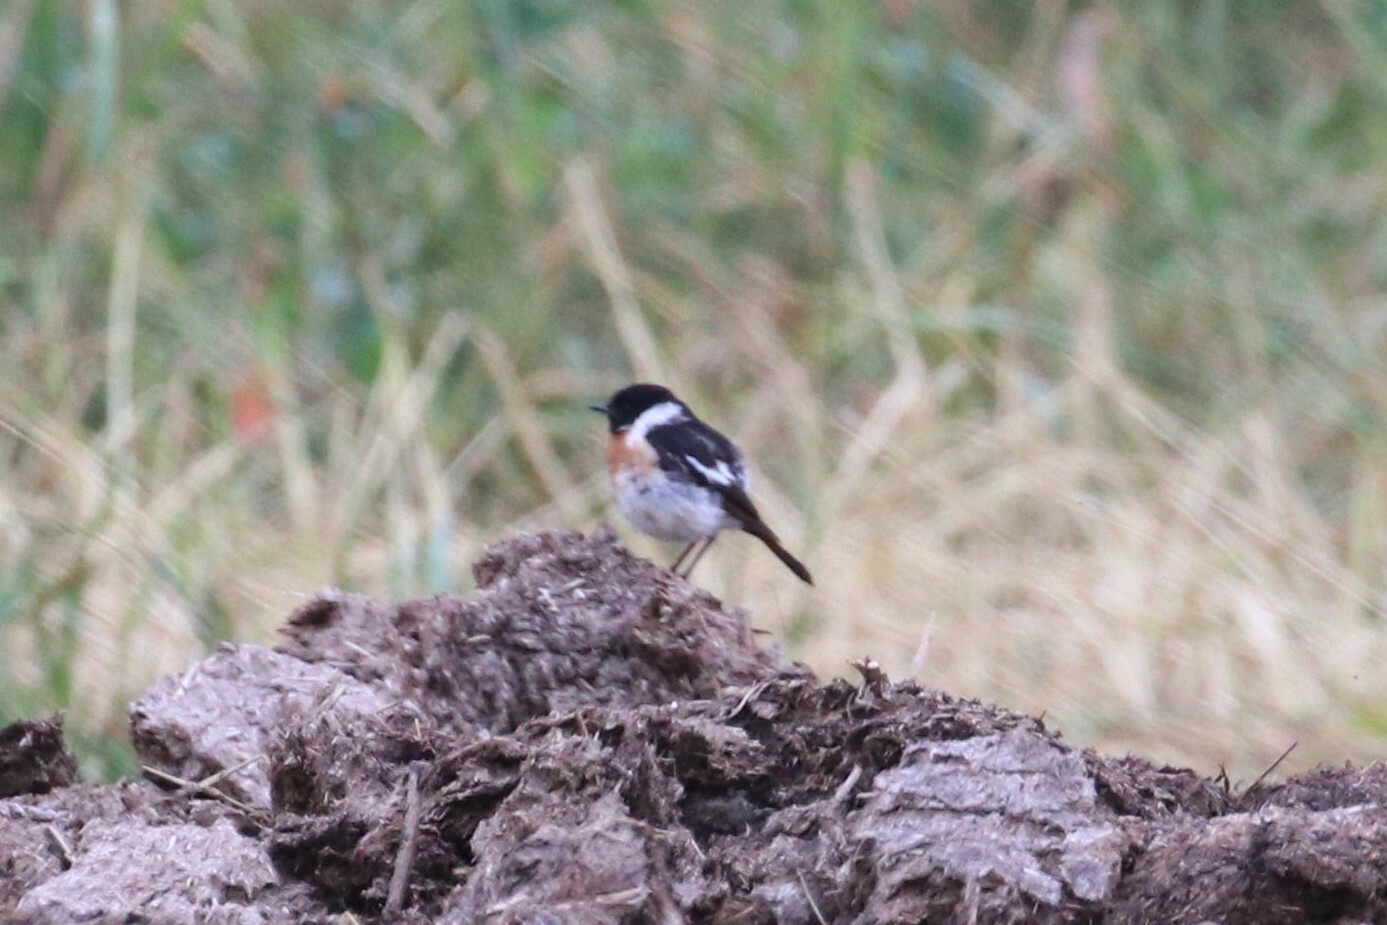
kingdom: Animalia
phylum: Chordata
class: Aves
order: Passeriformes
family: Muscicapidae
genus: Saxicola
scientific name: Saxicola maurus
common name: Siberian stonechat
